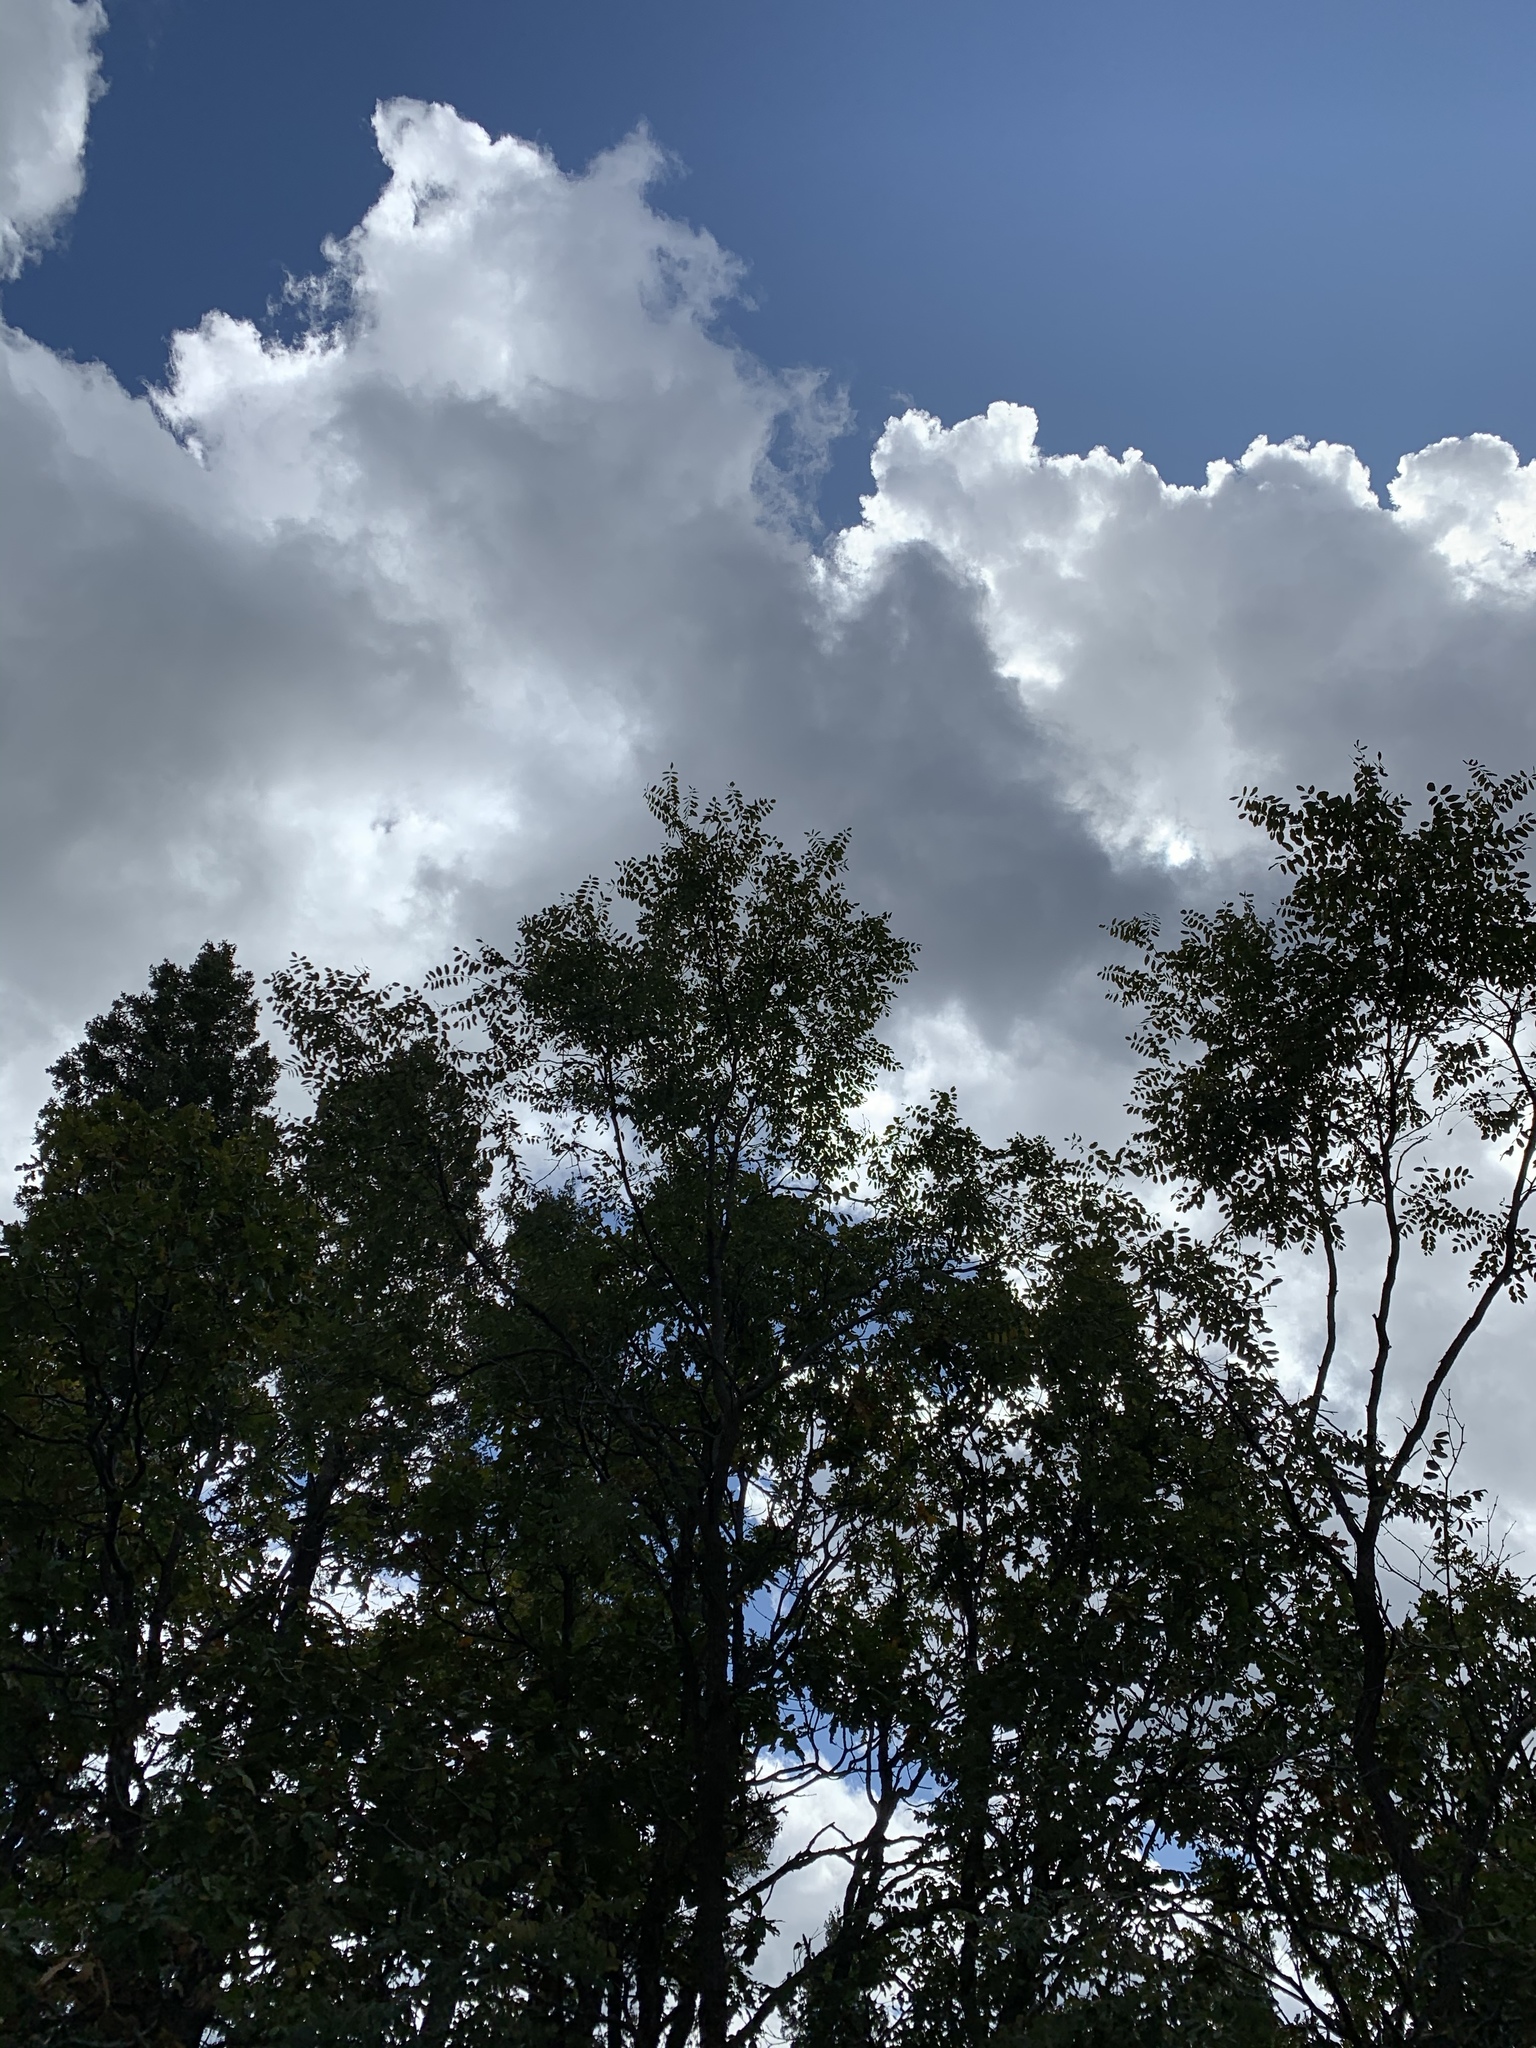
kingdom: Plantae
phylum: Tracheophyta
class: Magnoliopsida
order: Fabales
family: Fabaceae
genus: Robinia
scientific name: Robinia neomexicana
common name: New mexico locust
